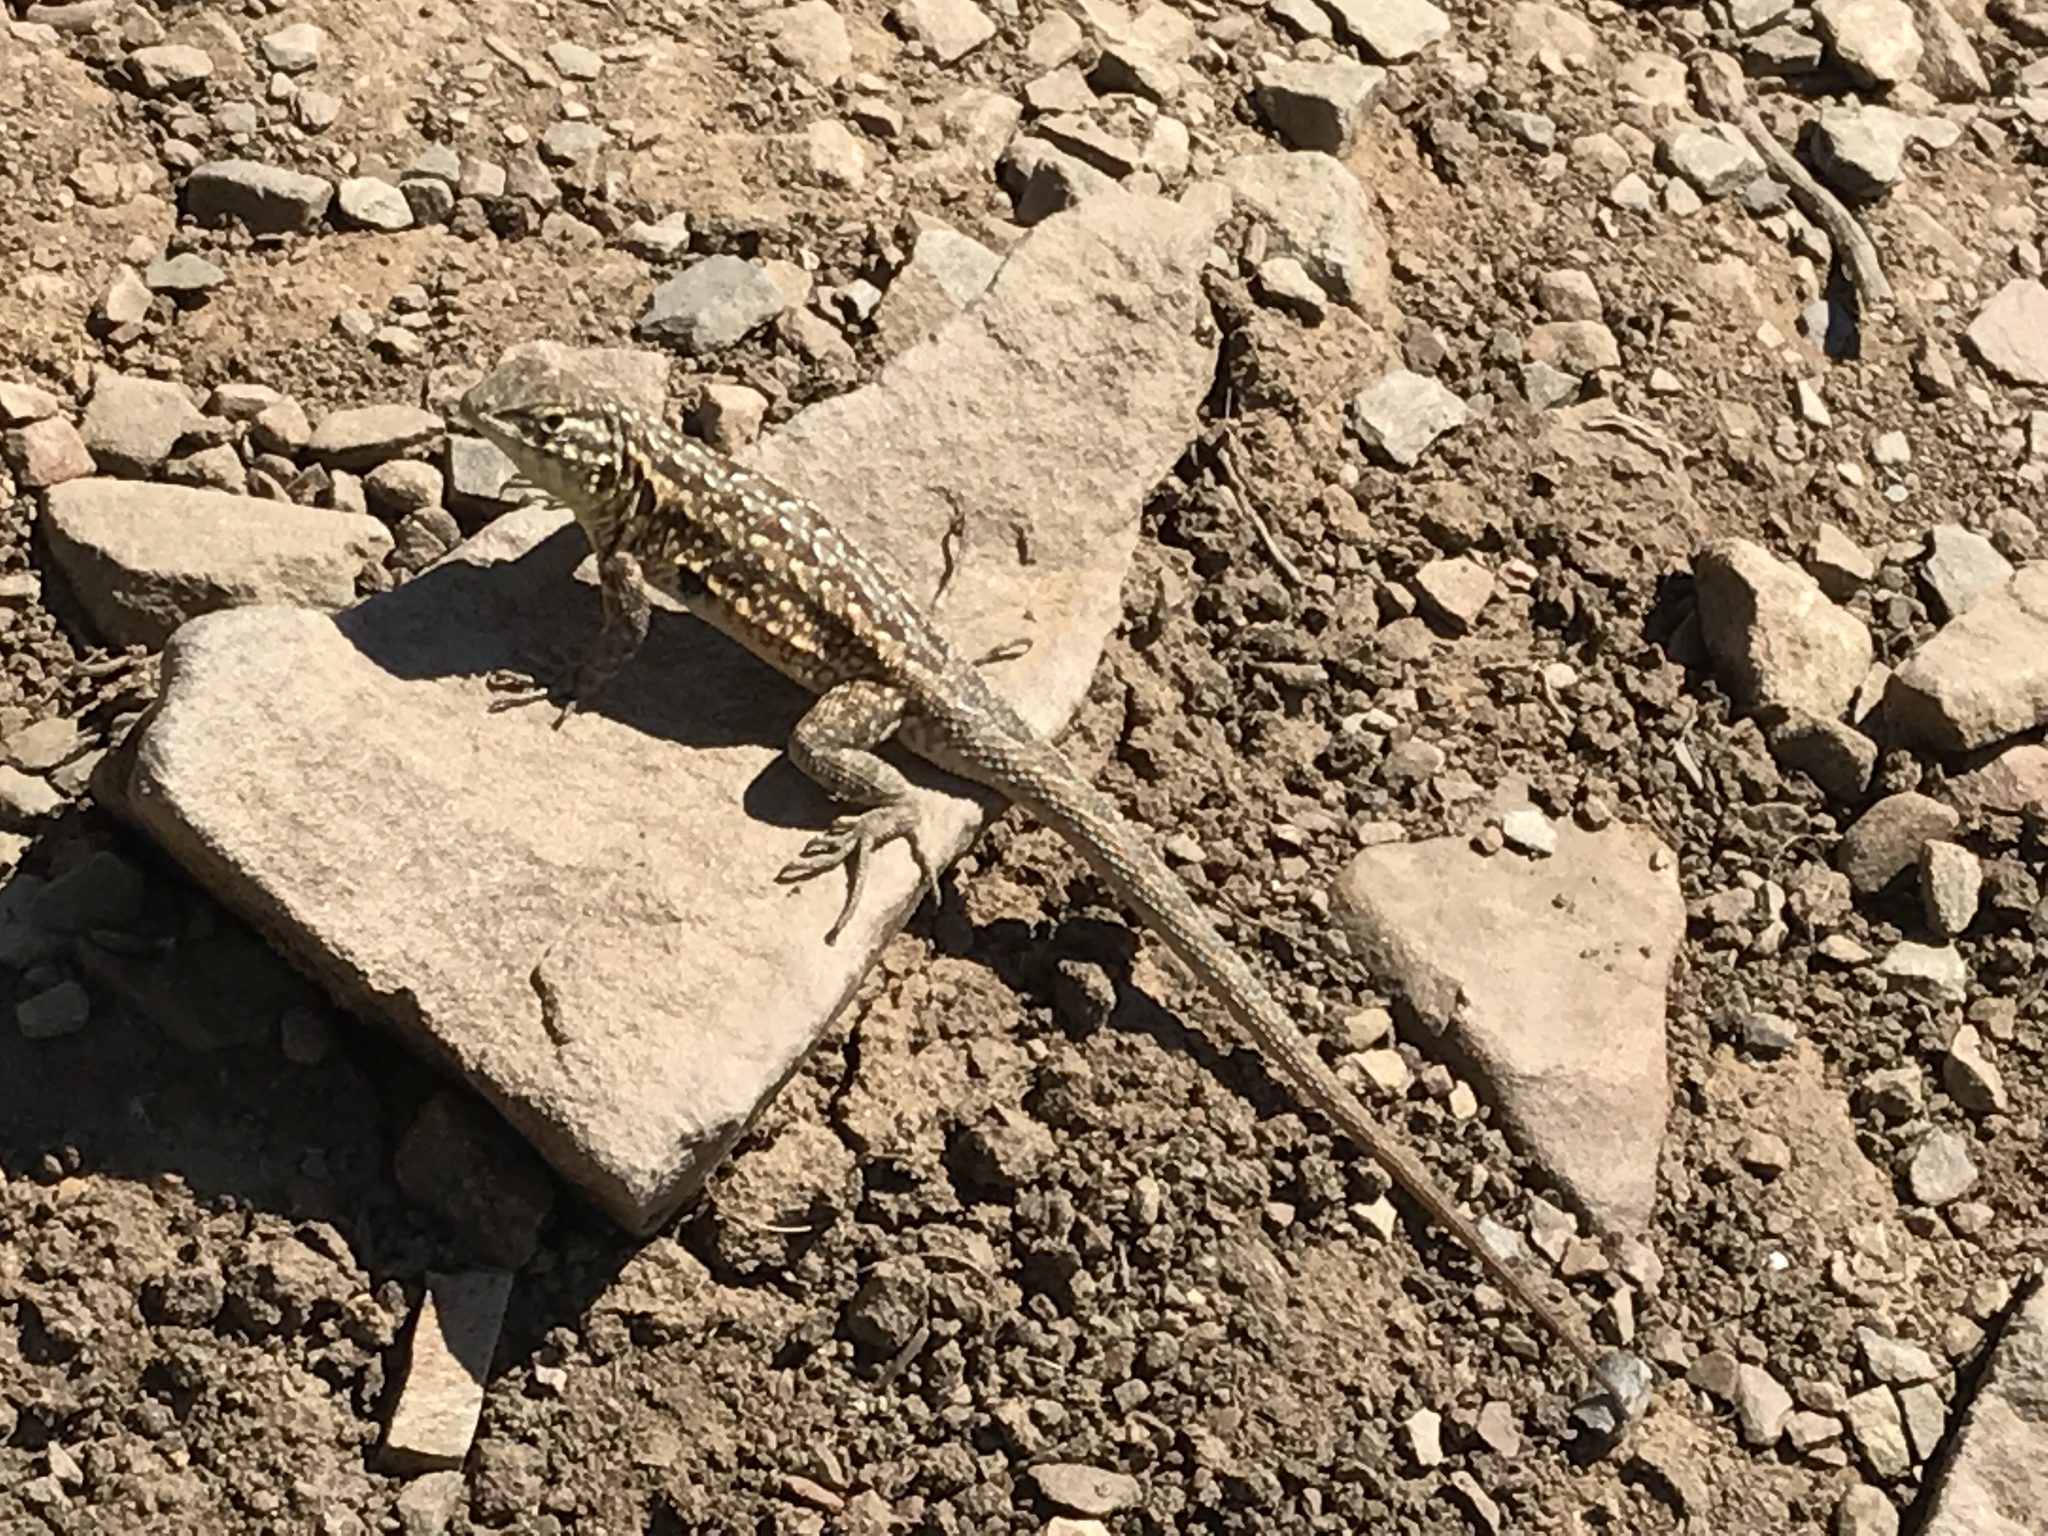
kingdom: Animalia
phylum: Chordata
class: Squamata
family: Phrynosomatidae
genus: Uta
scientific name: Uta stansburiana
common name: Side-blotched lizard
